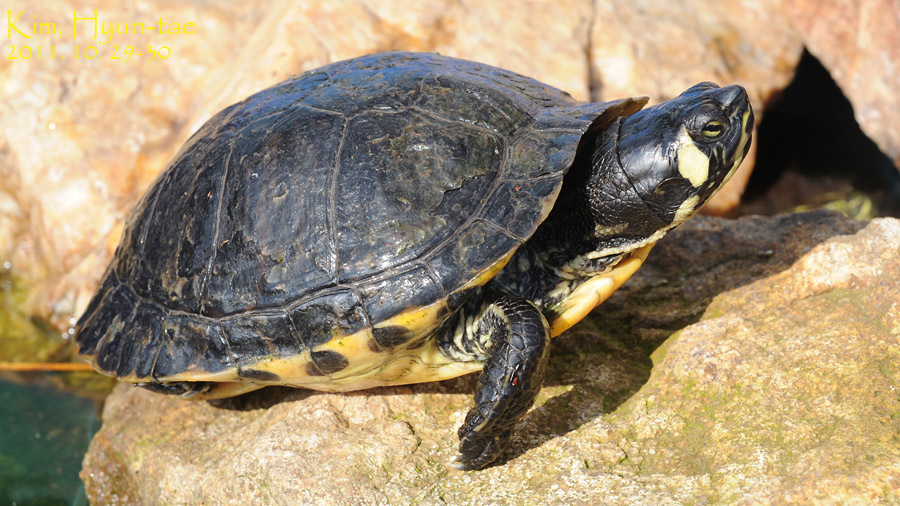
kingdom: Animalia
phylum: Chordata
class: Testudines
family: Emydidae
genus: Trachemys
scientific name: Trachemys scripta
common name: Slider
